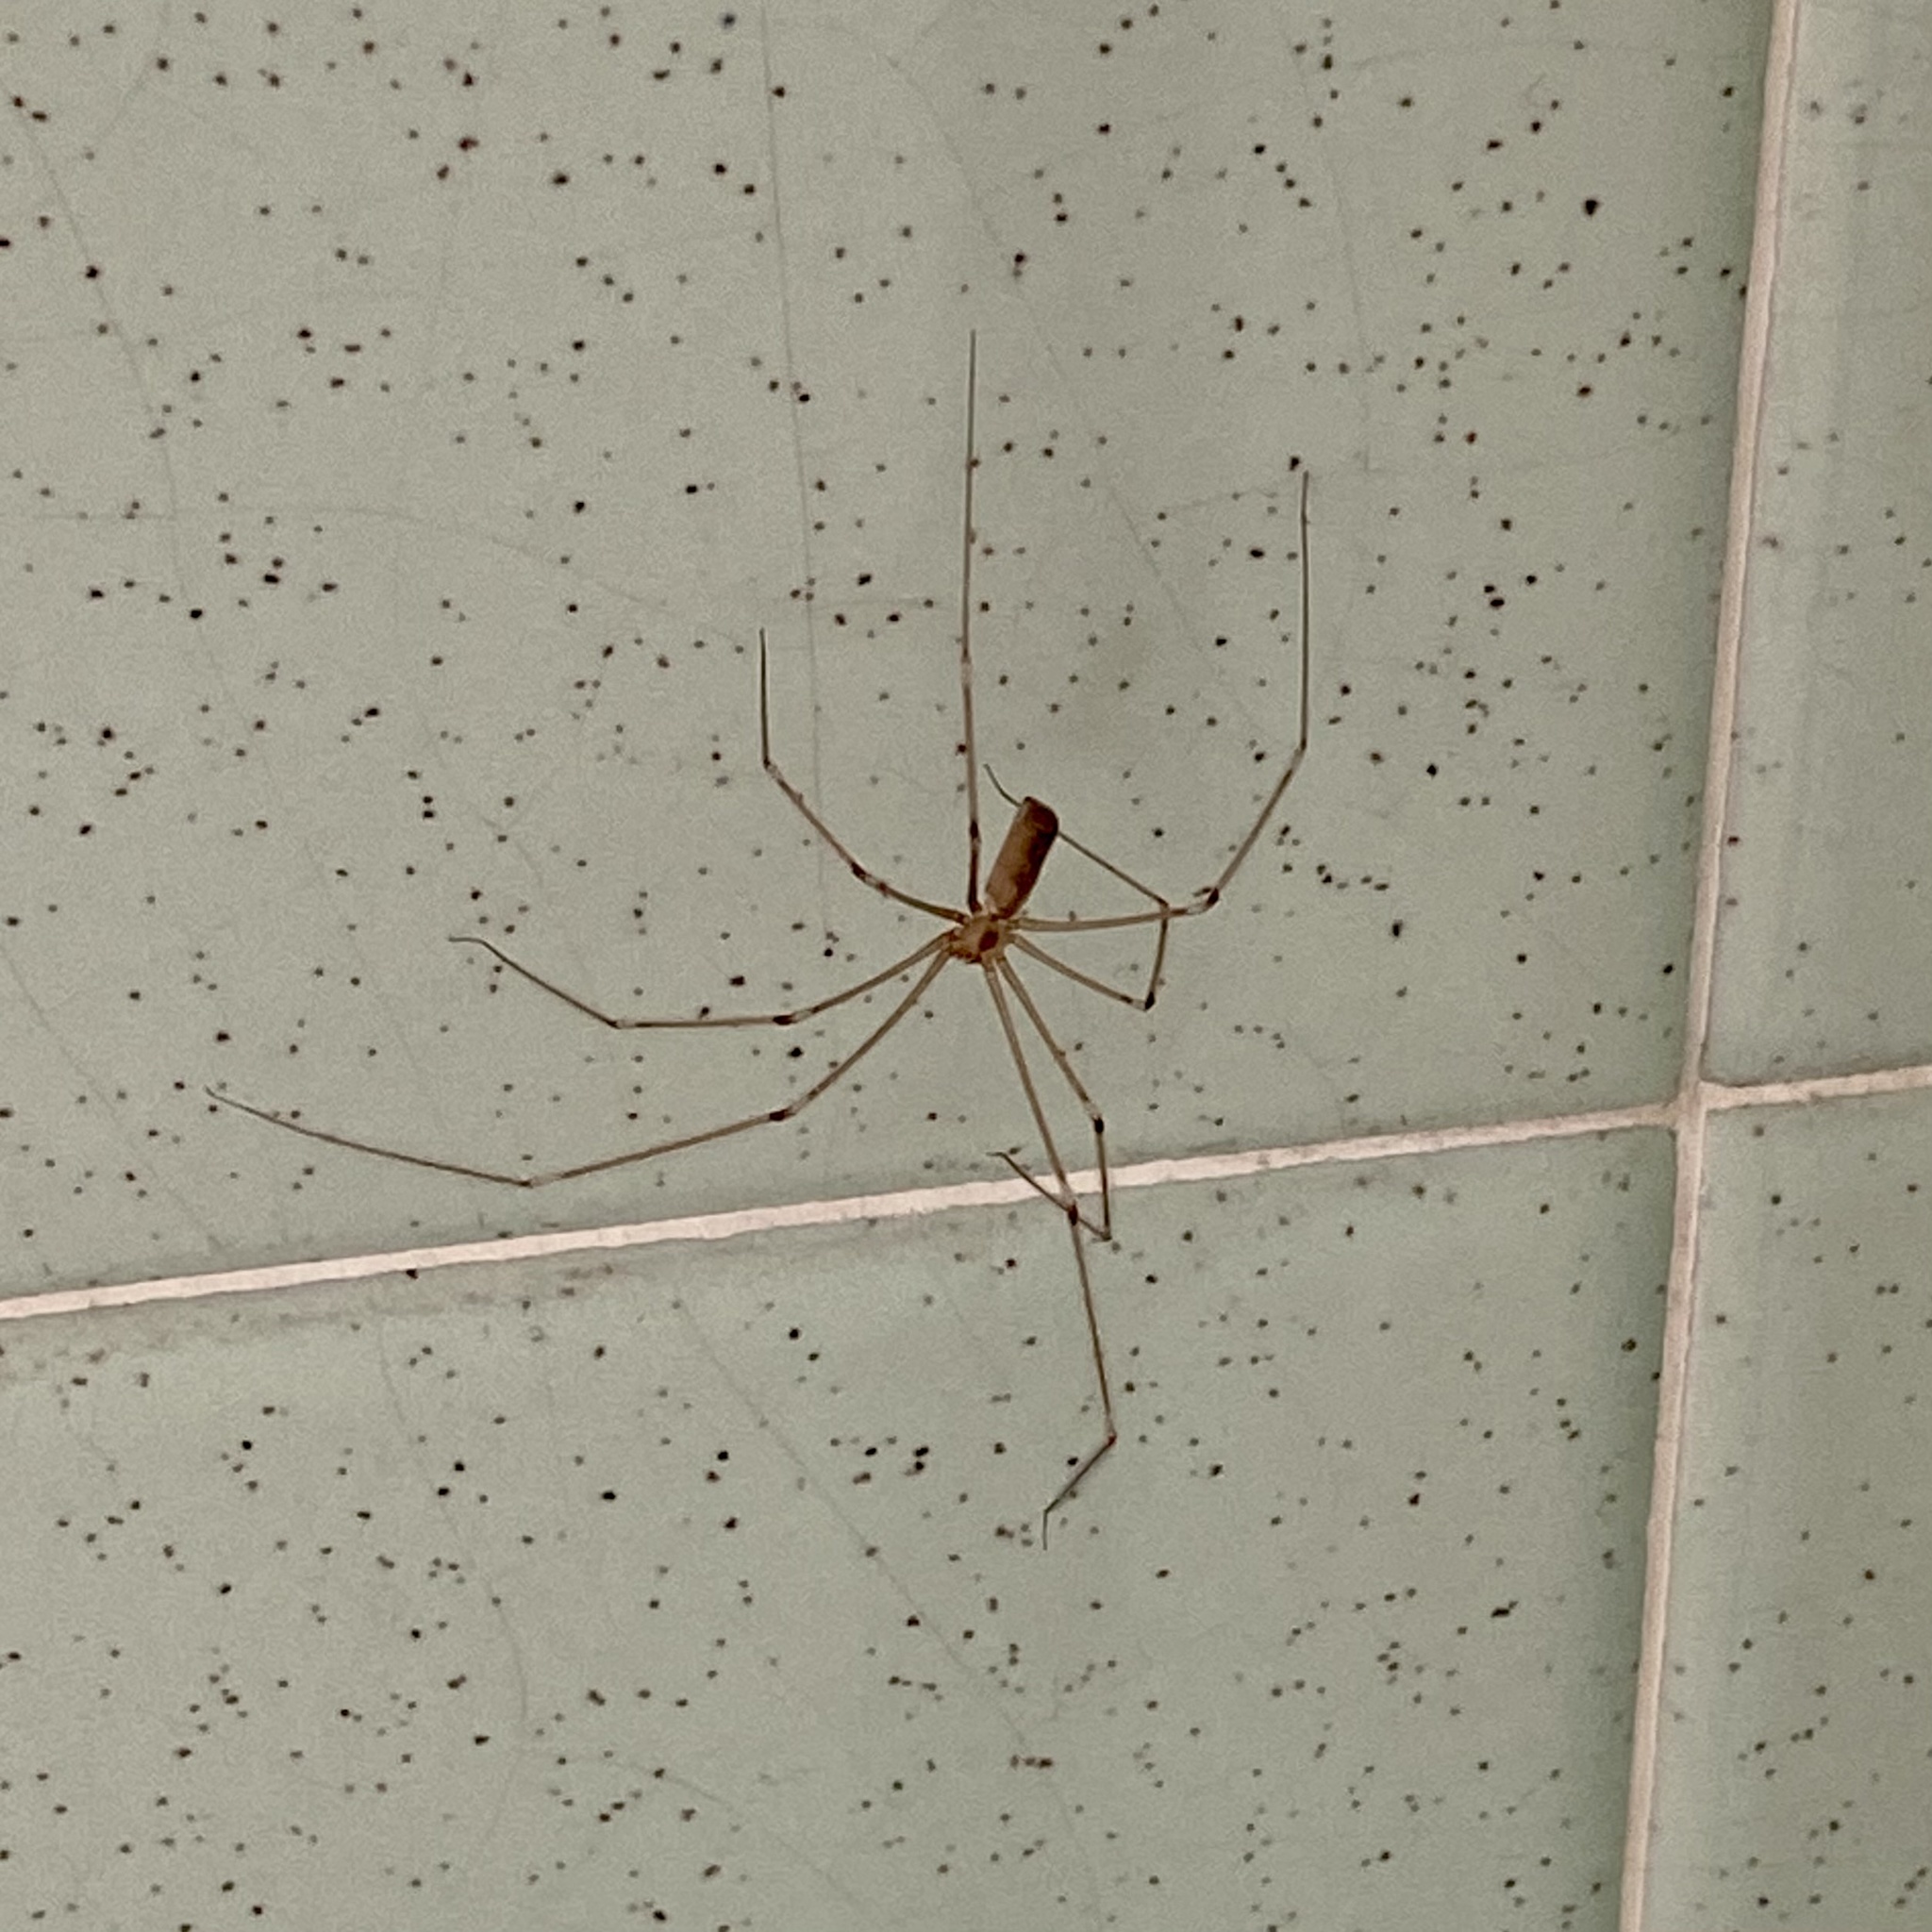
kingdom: Animalia
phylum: Arthropoda
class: Arachnida
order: Araneae
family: Pholcidae
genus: Pholcus
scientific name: Pholcus phalangioides
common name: Longbodied cellar spider
